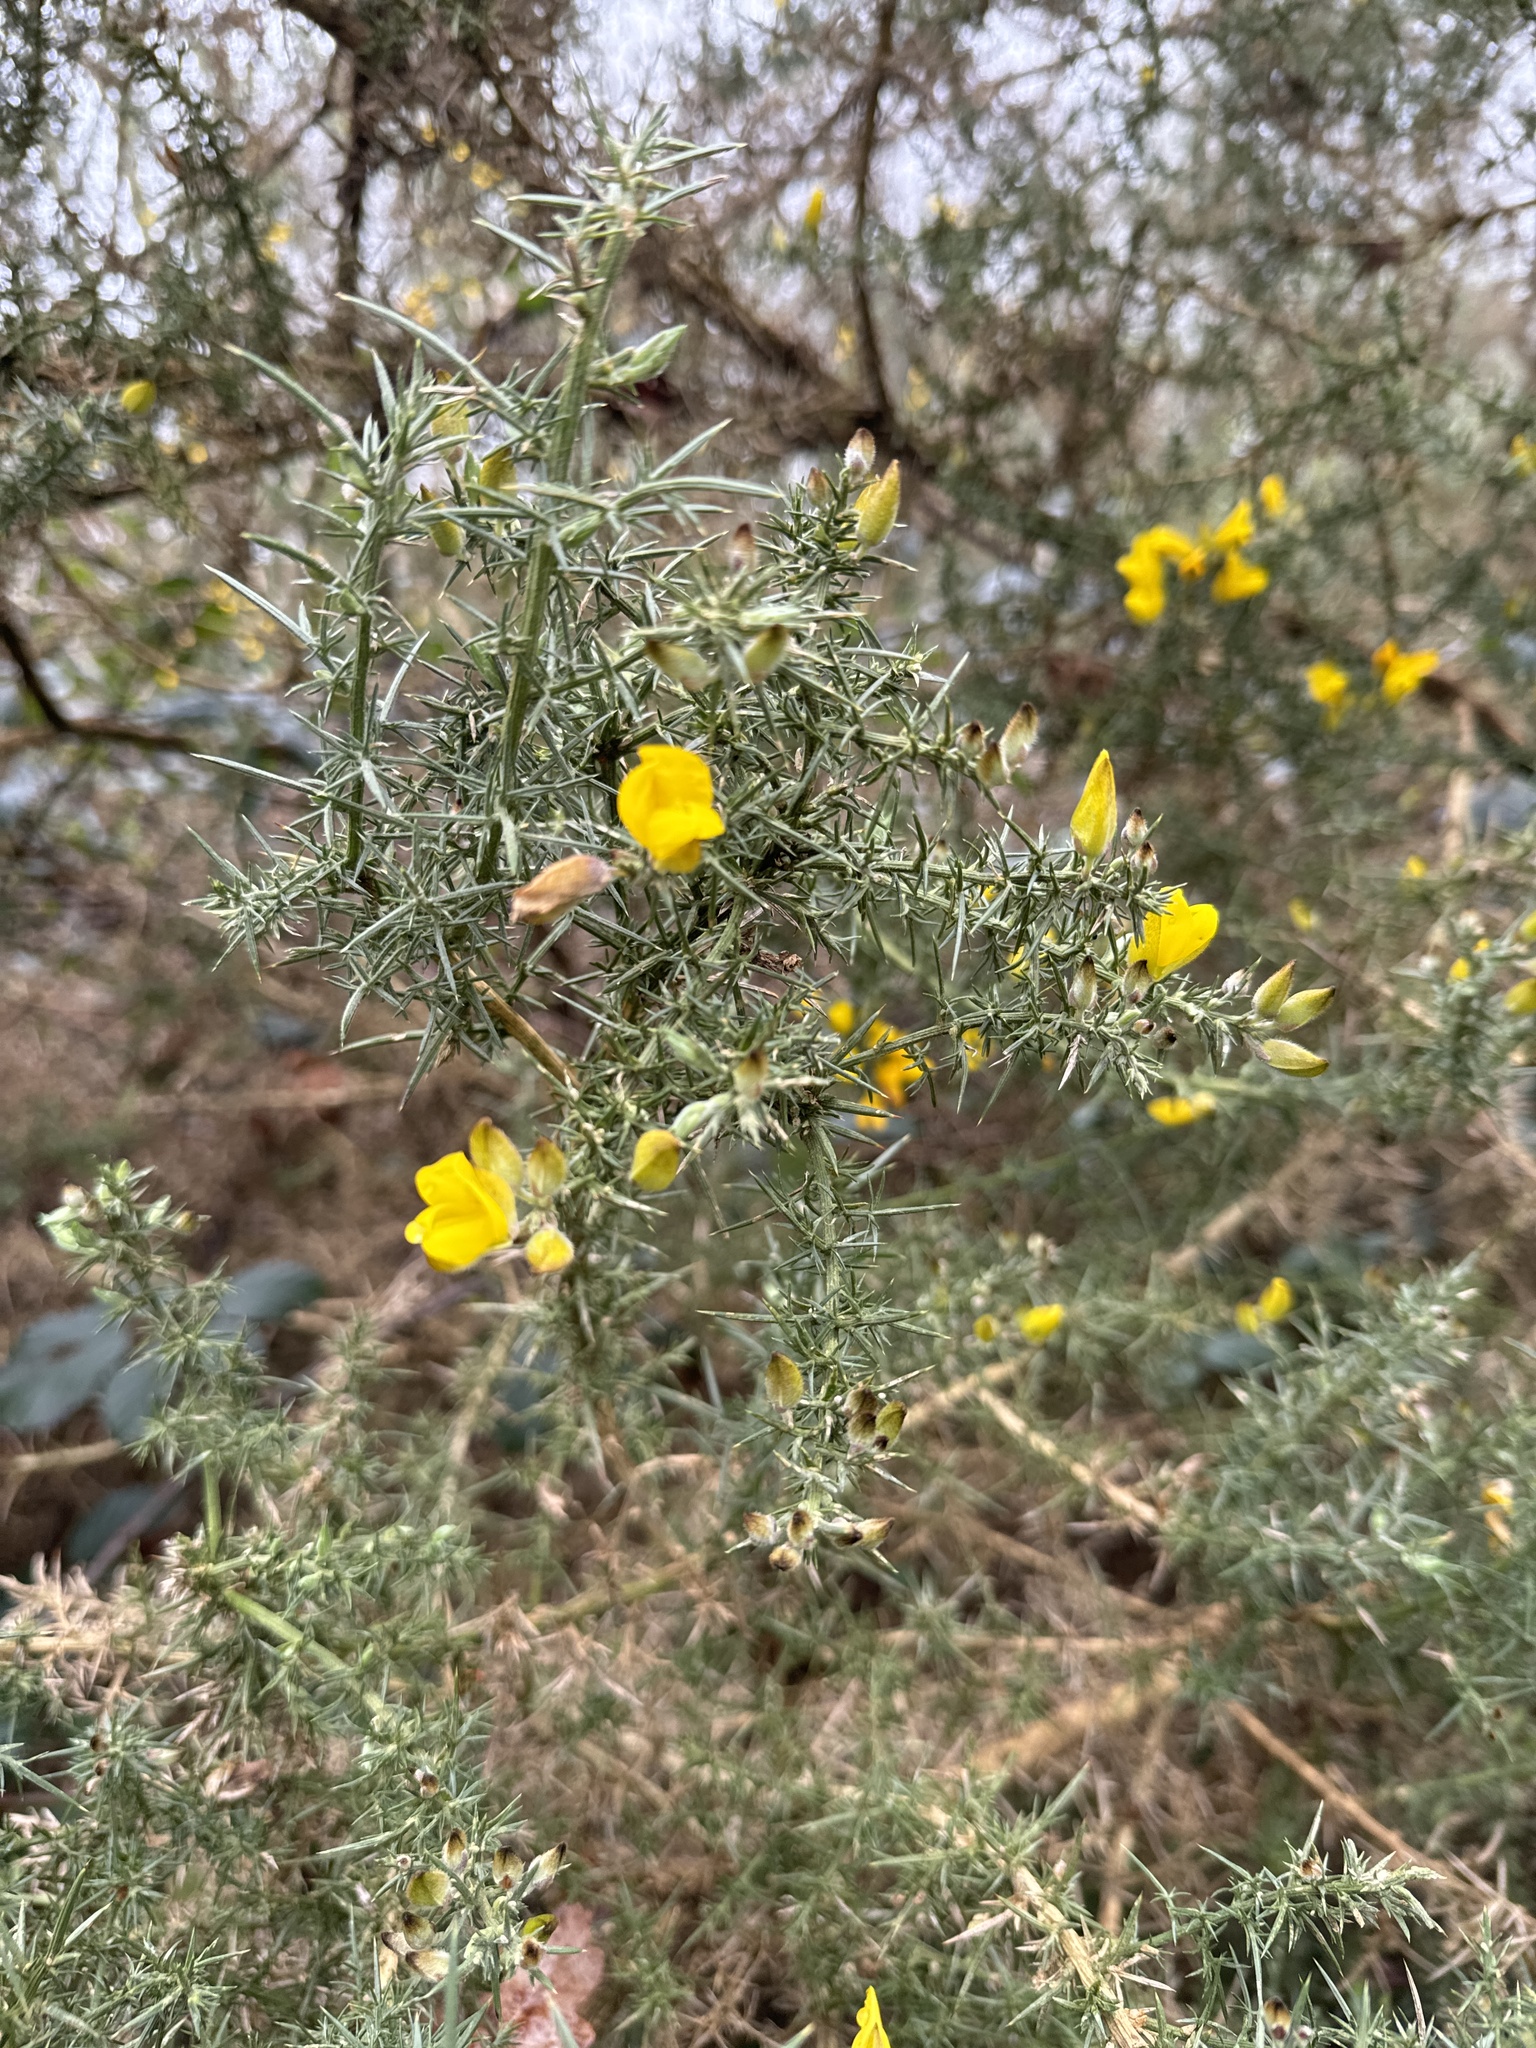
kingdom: Plantae
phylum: Tracheophyta
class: Magnoliopsida
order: Fabales
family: Fabaceae
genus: Ulex
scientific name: Ulex europaeus
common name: Common gorse
